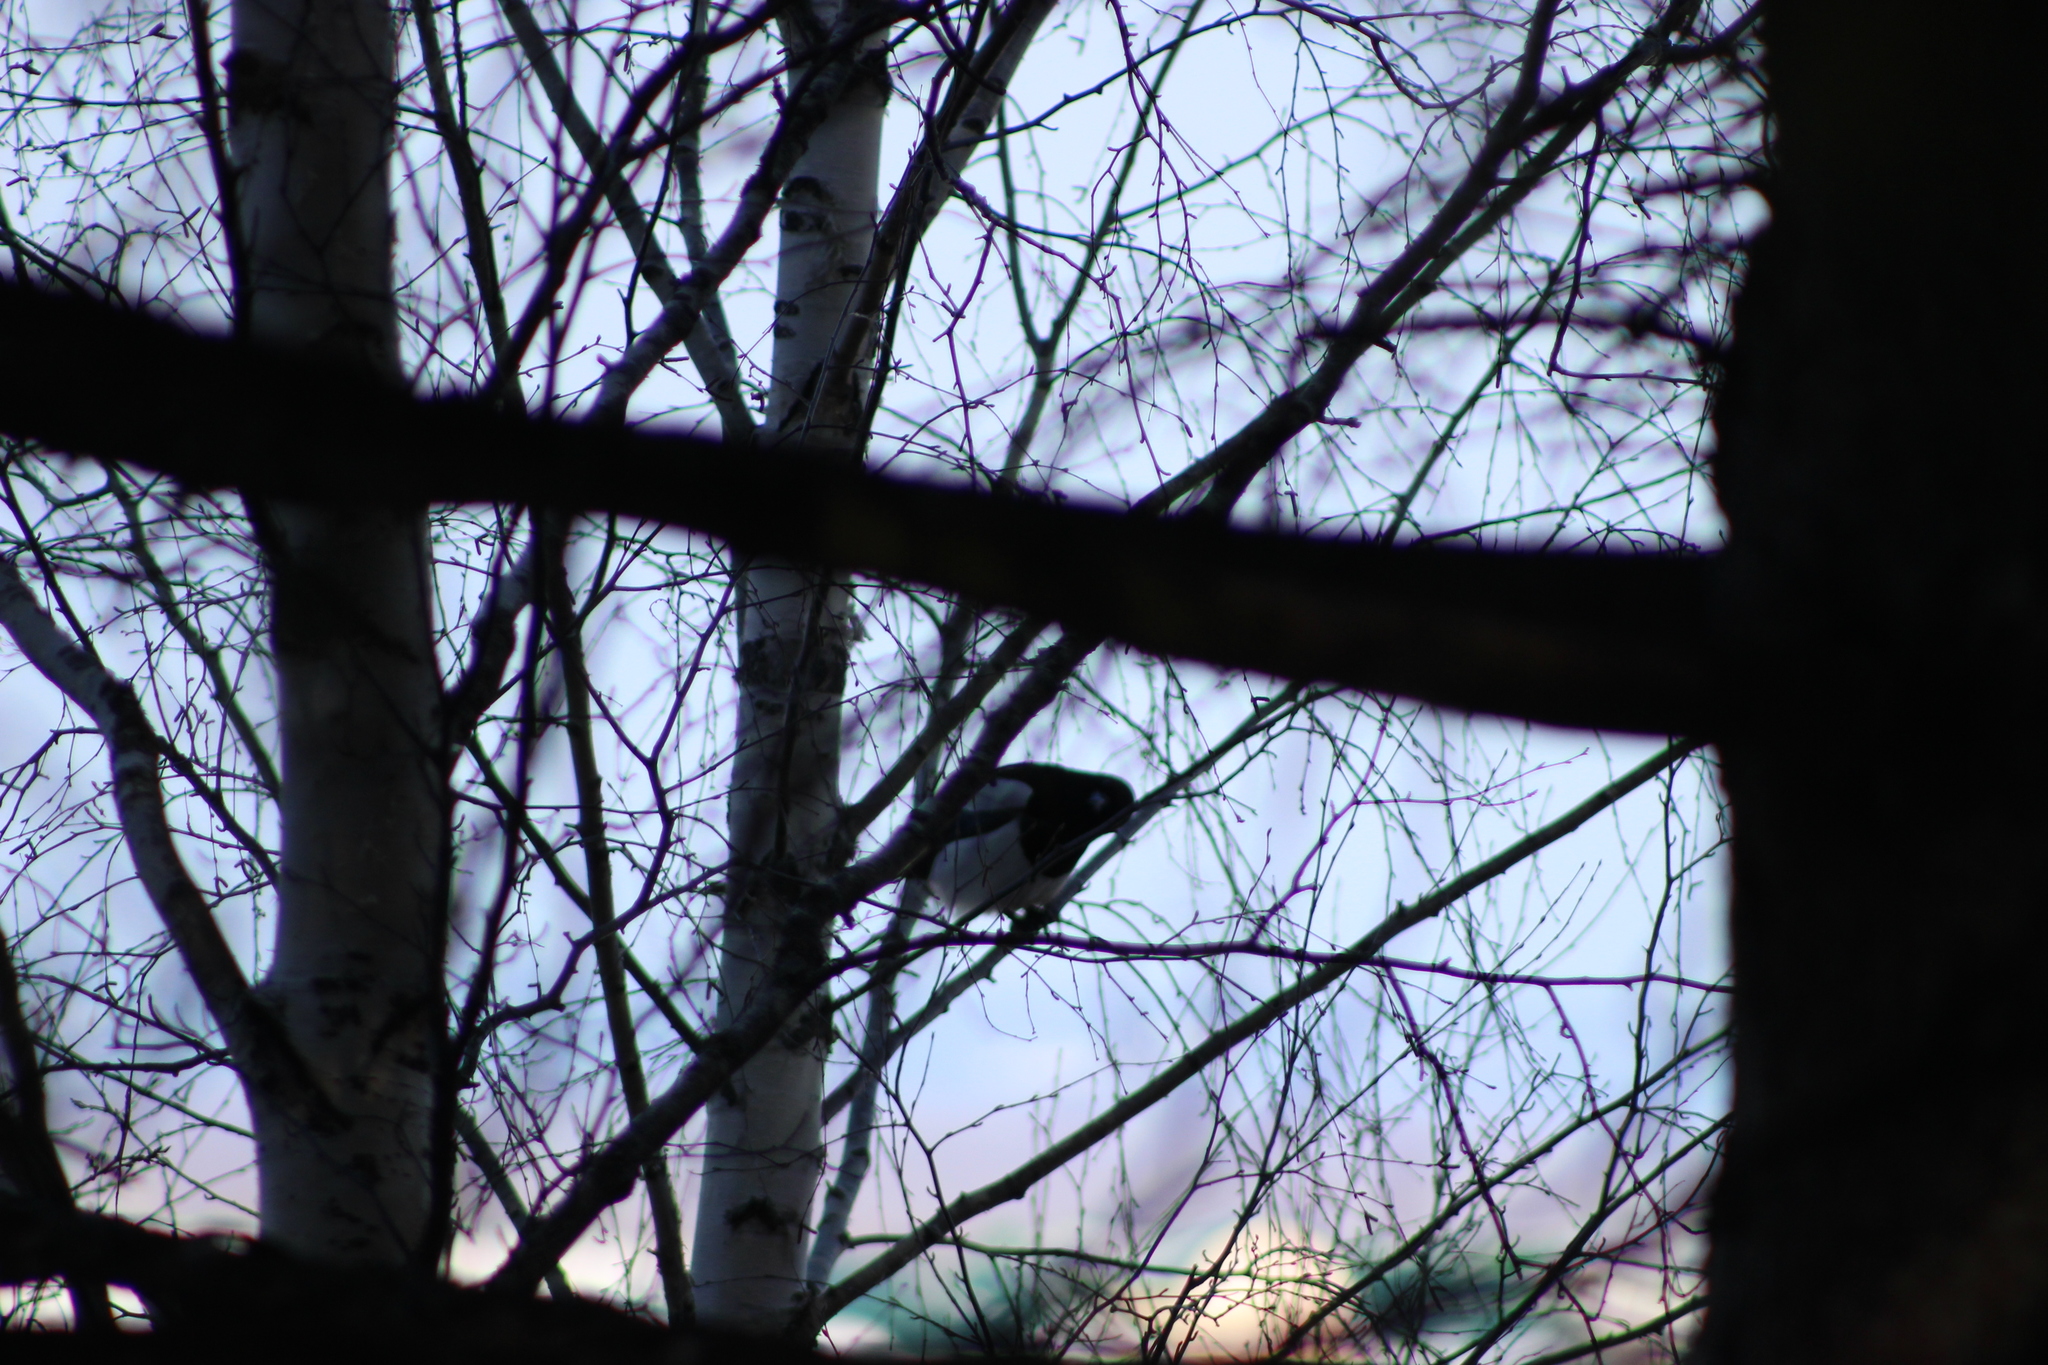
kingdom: Animalia
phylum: Chordata
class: Aves
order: Passeriformes
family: Corvidae
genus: Pica
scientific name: Pica pica
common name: Eurasian magpie
